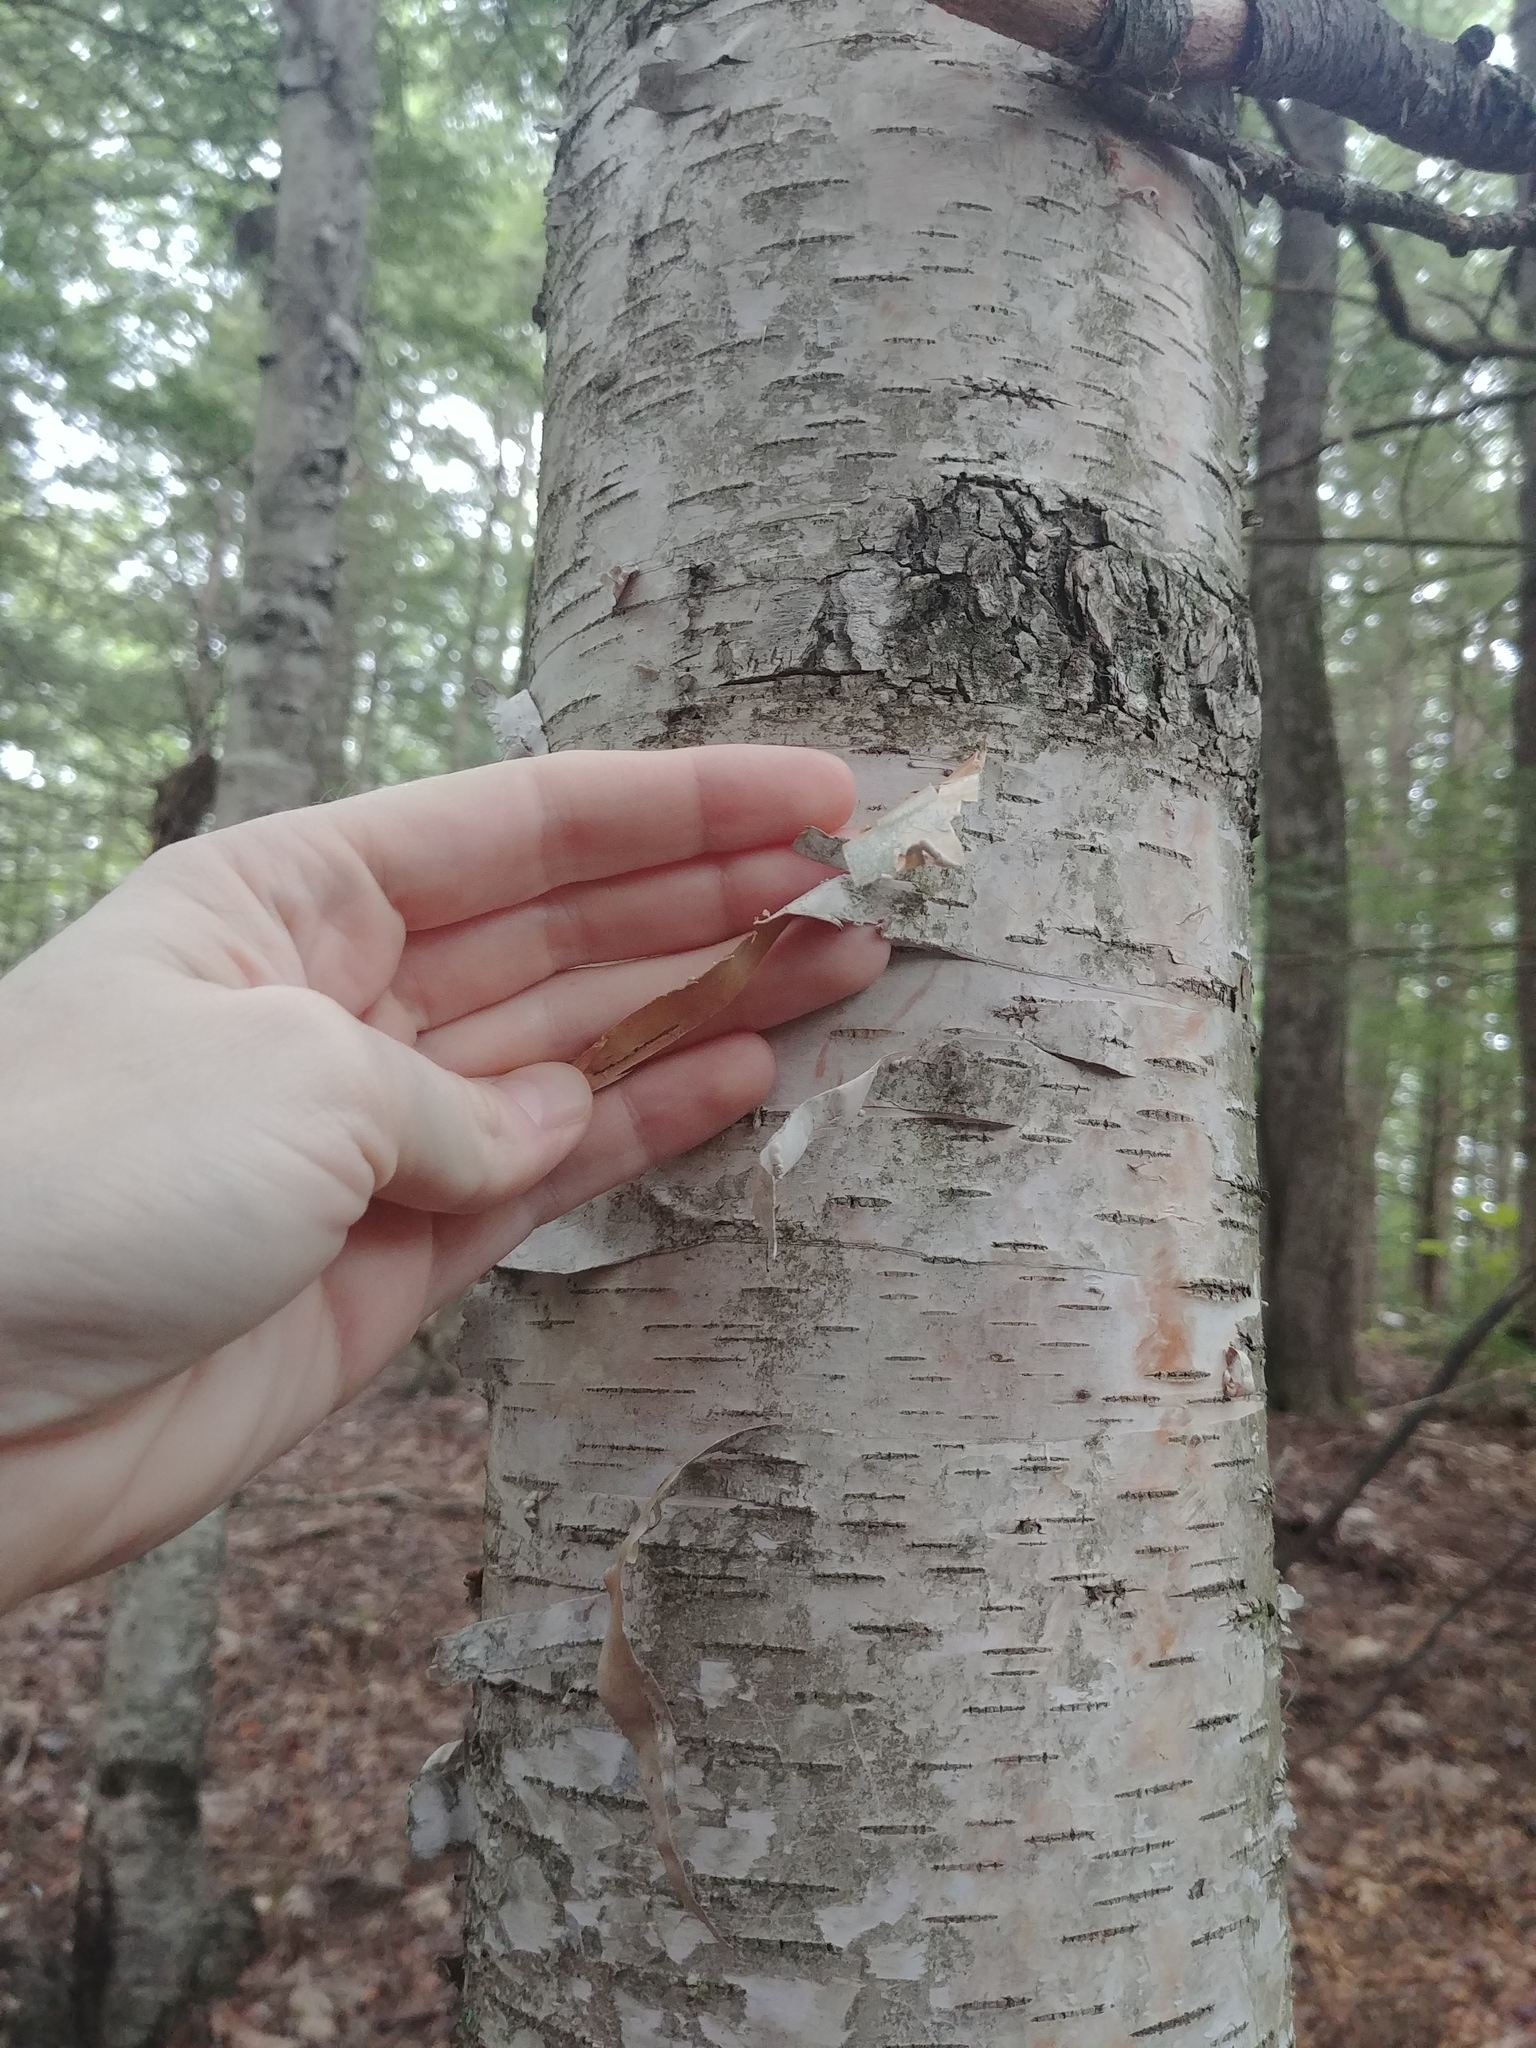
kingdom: Plantae
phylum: Tracheophyta
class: Magnoliopsida
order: Fagales
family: Betulaceae
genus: Betula
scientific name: Betula papyrifera
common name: Paper birch
